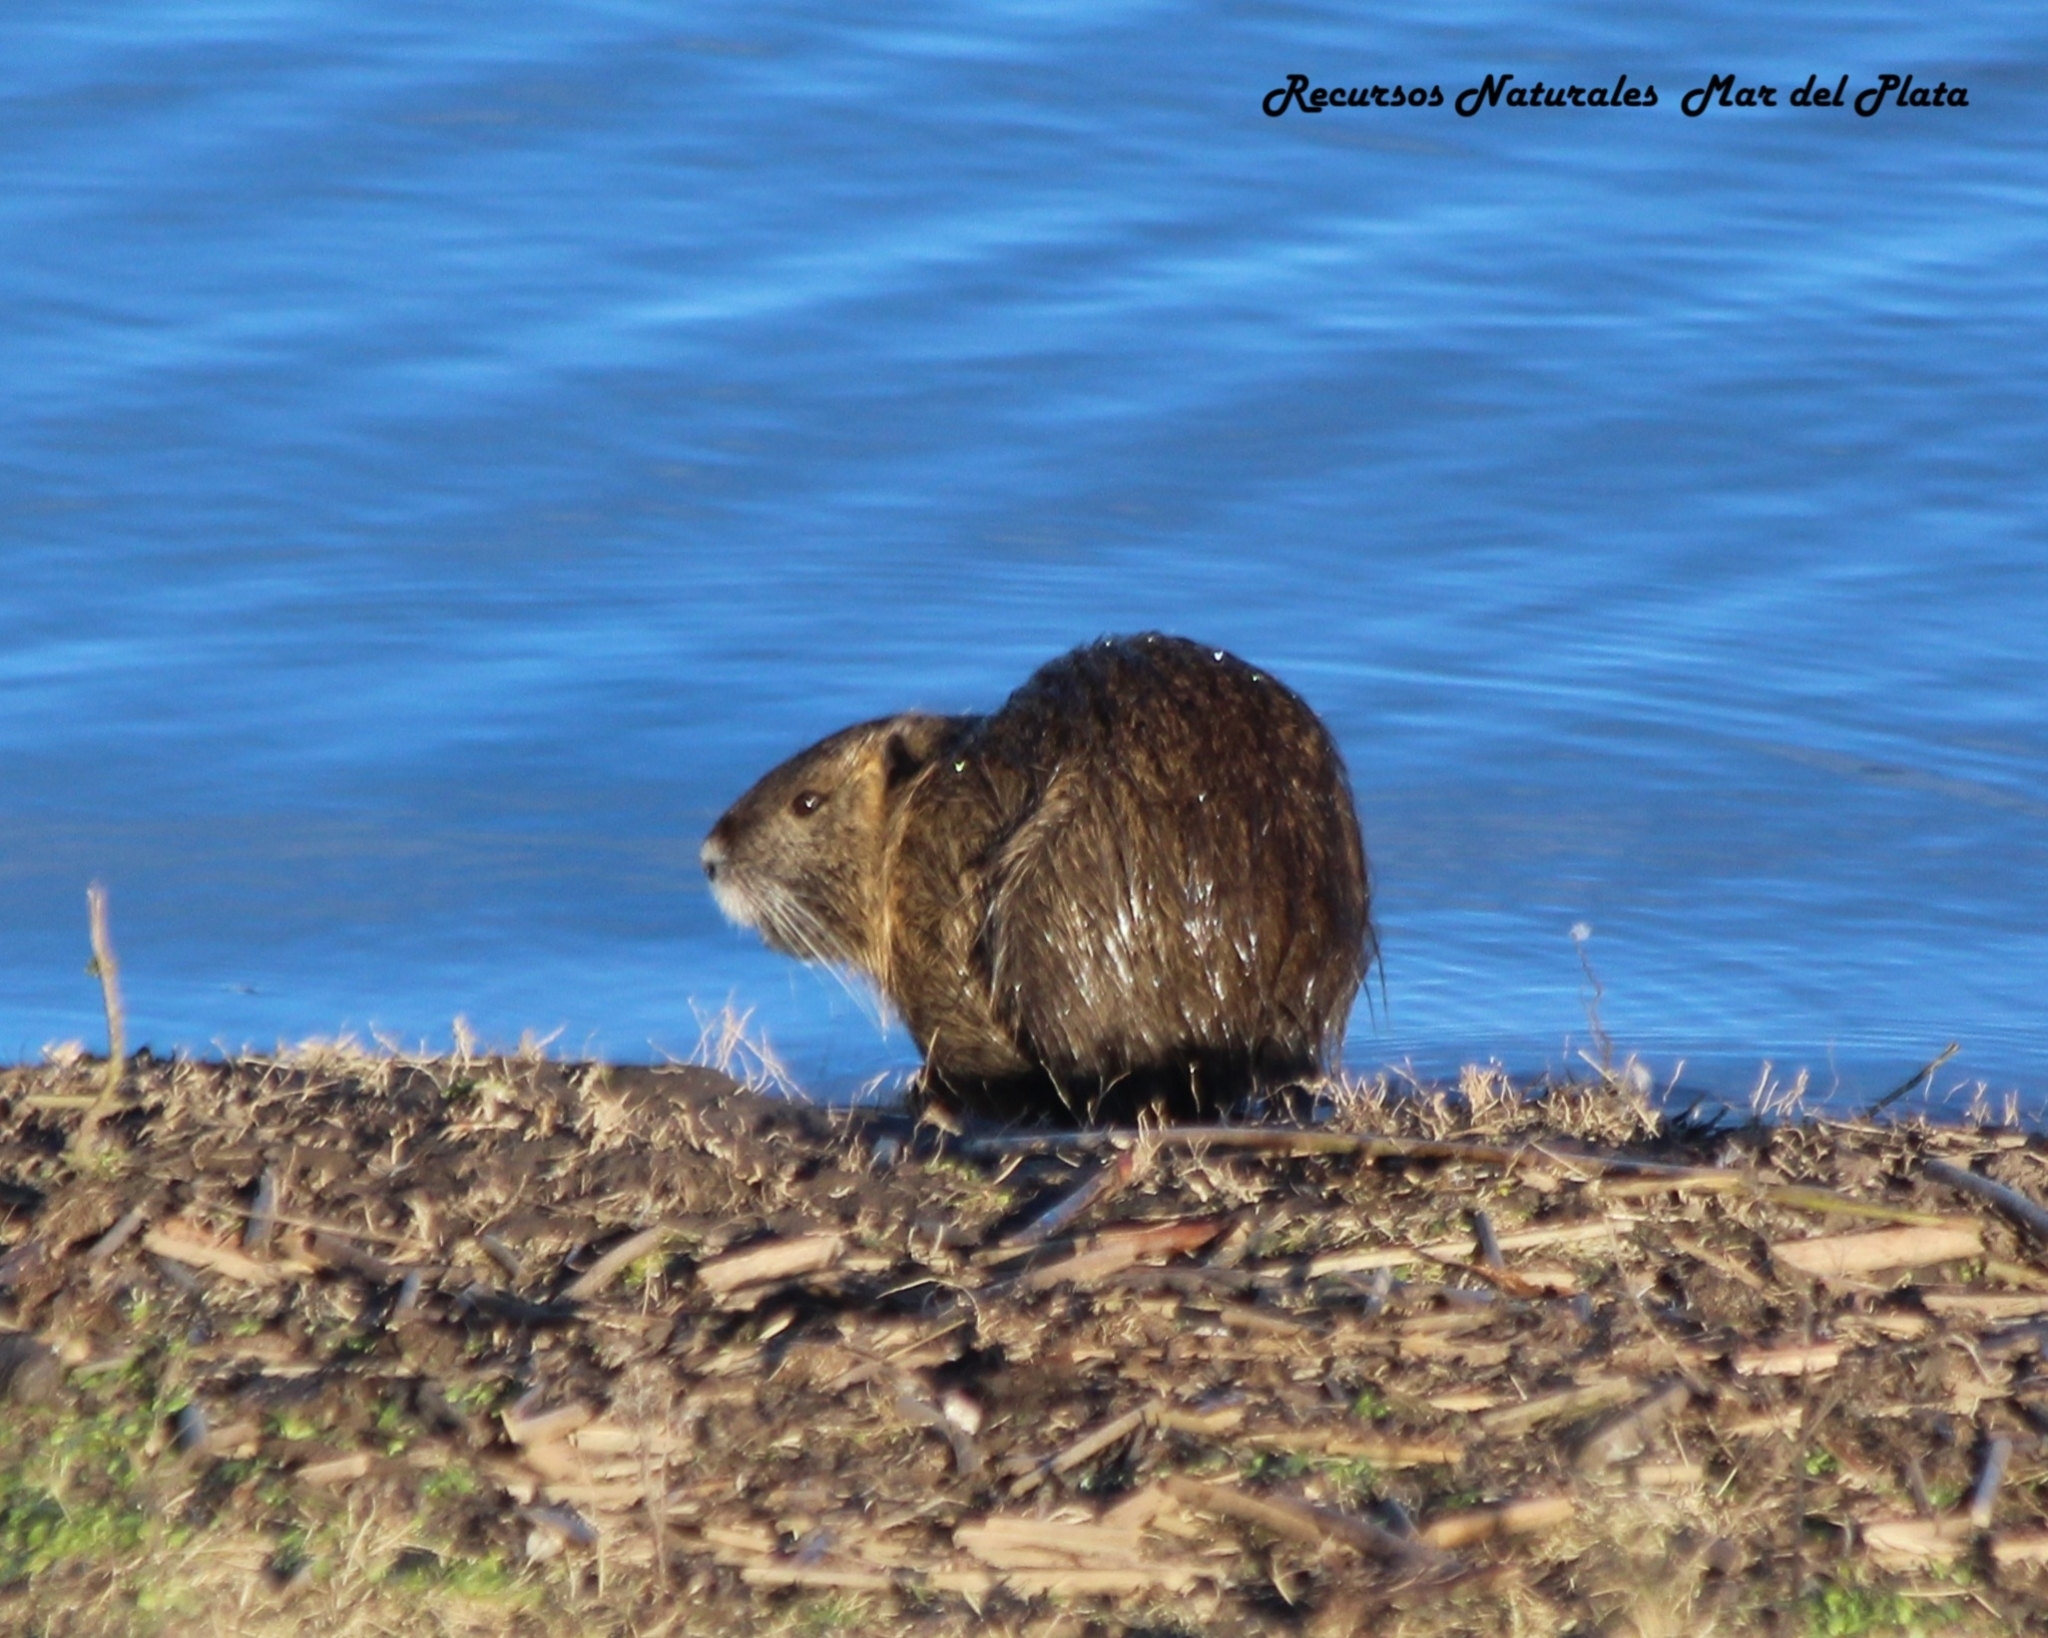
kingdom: Animalia
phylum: Chordata
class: Mammalia
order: Rodentia
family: Myocastoridae
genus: Myocastor
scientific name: Myocastor coypus
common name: Coypu
